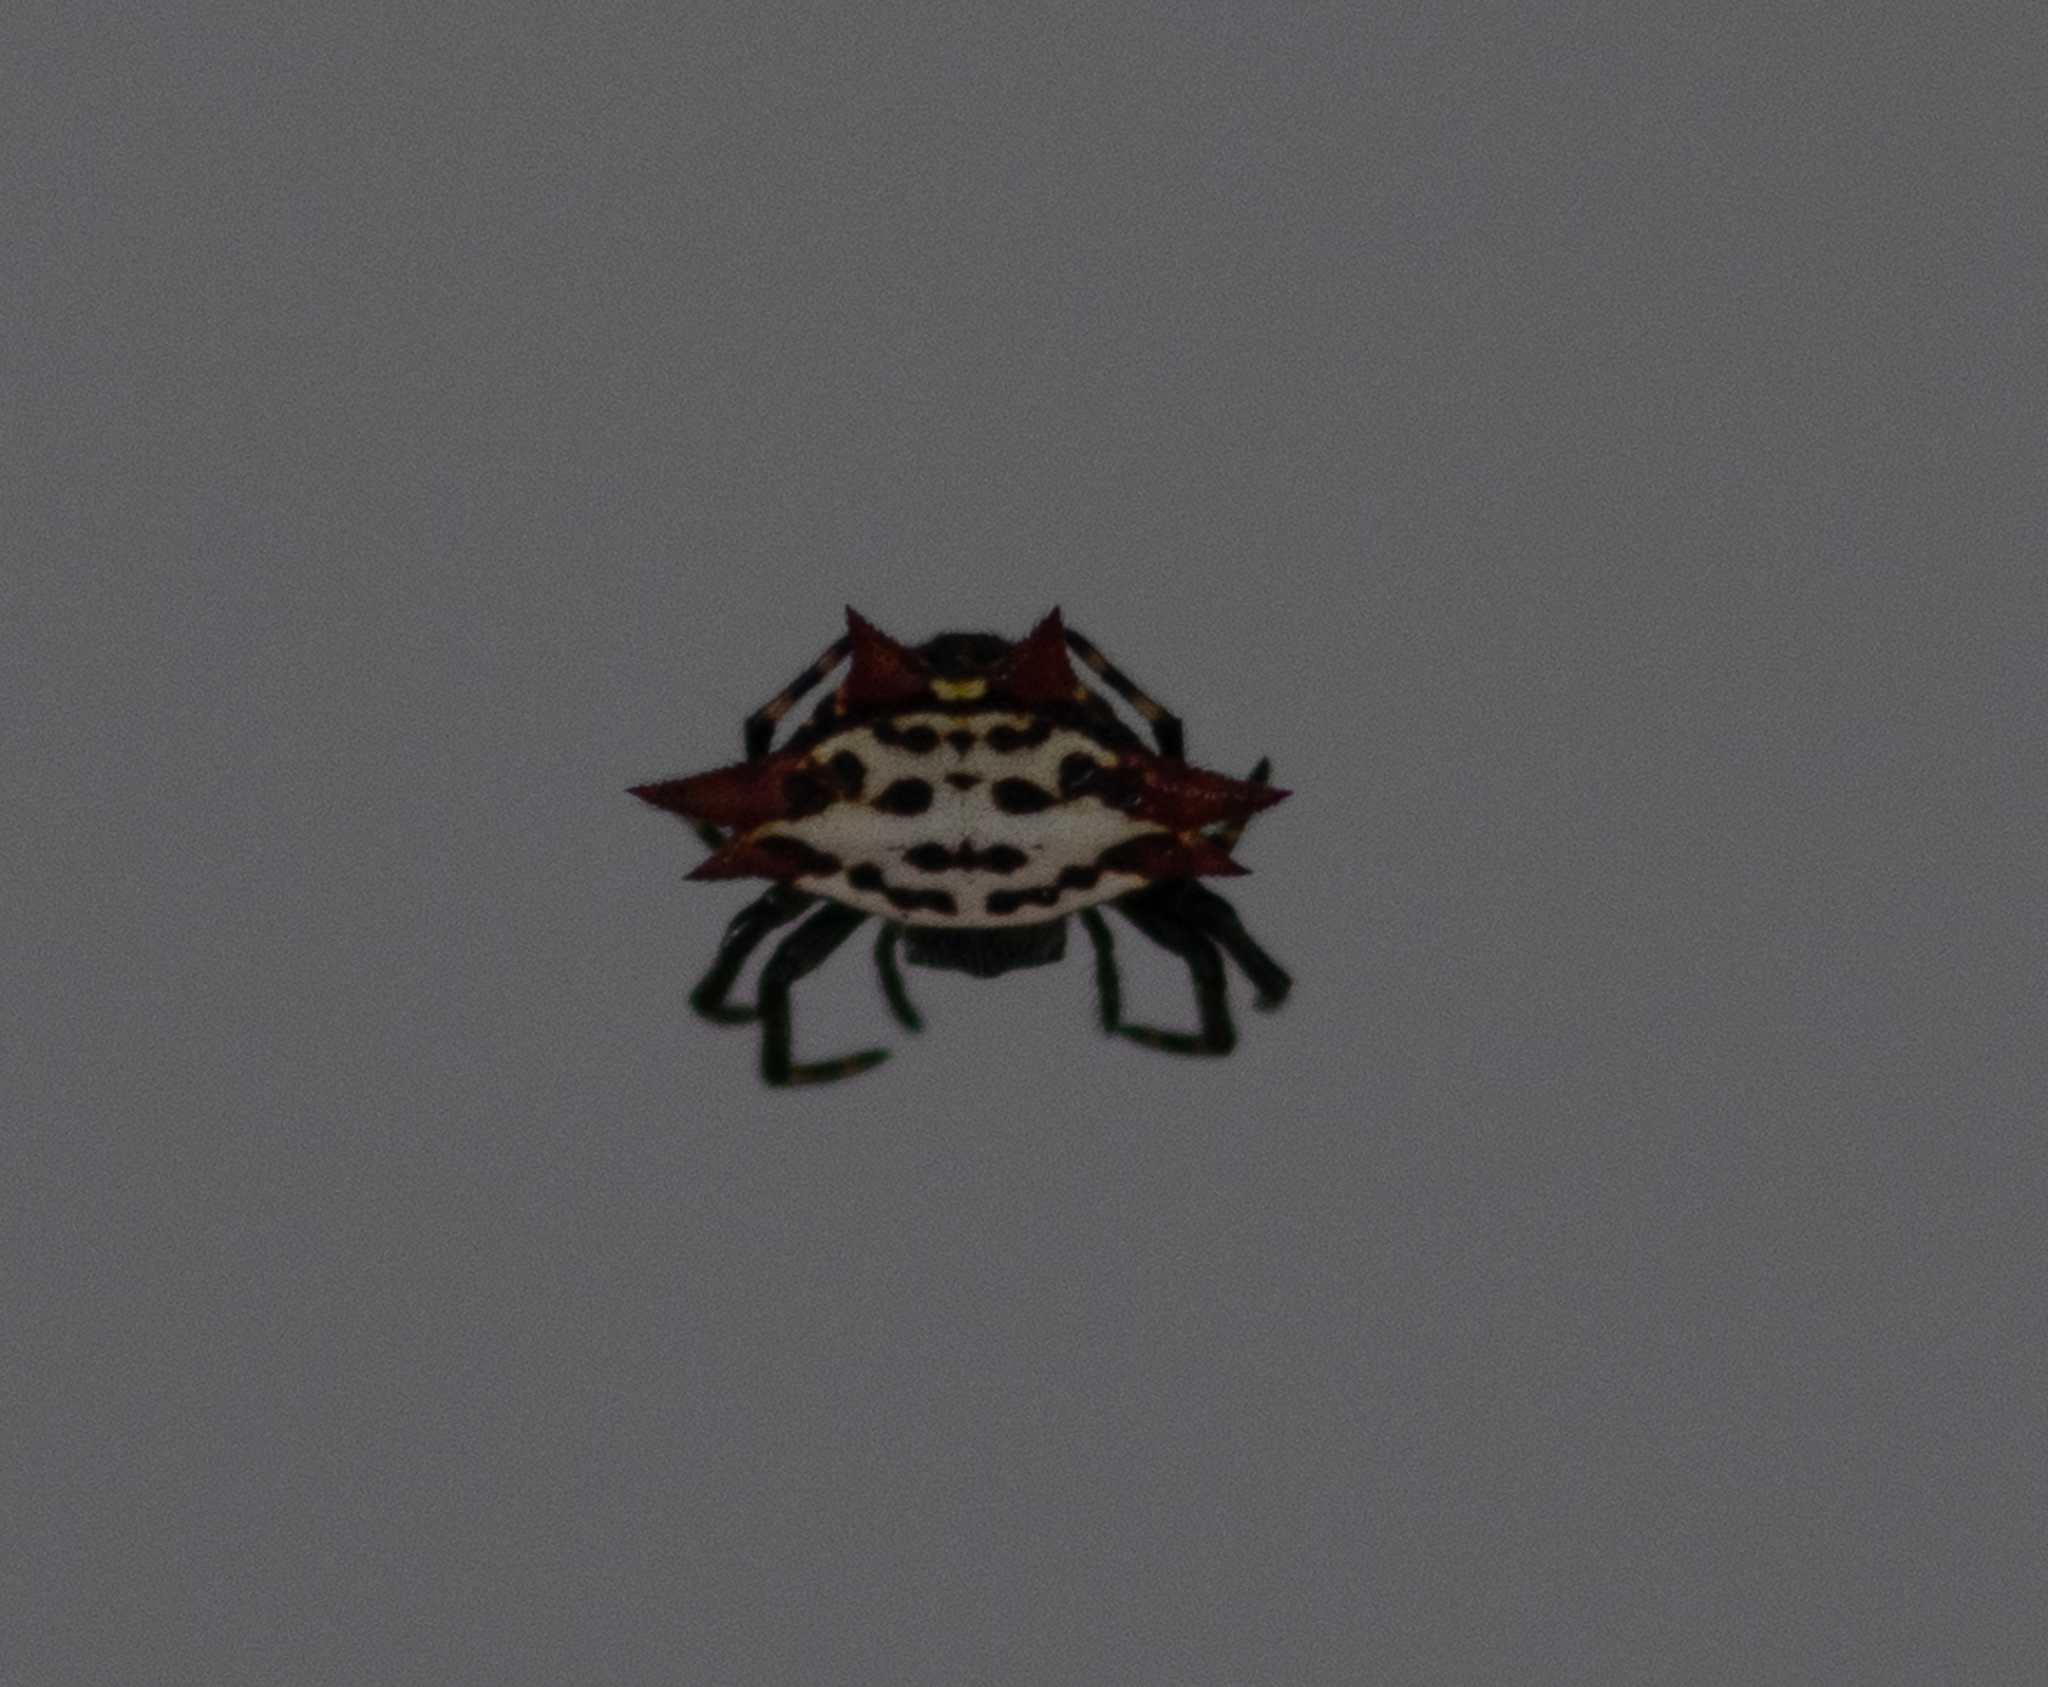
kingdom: Animalia
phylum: Arthropoda
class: Arachnida
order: Araneae
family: Araneidae
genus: Gasteracantha
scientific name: Gasteracantha cancriformis
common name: Orb weavers
